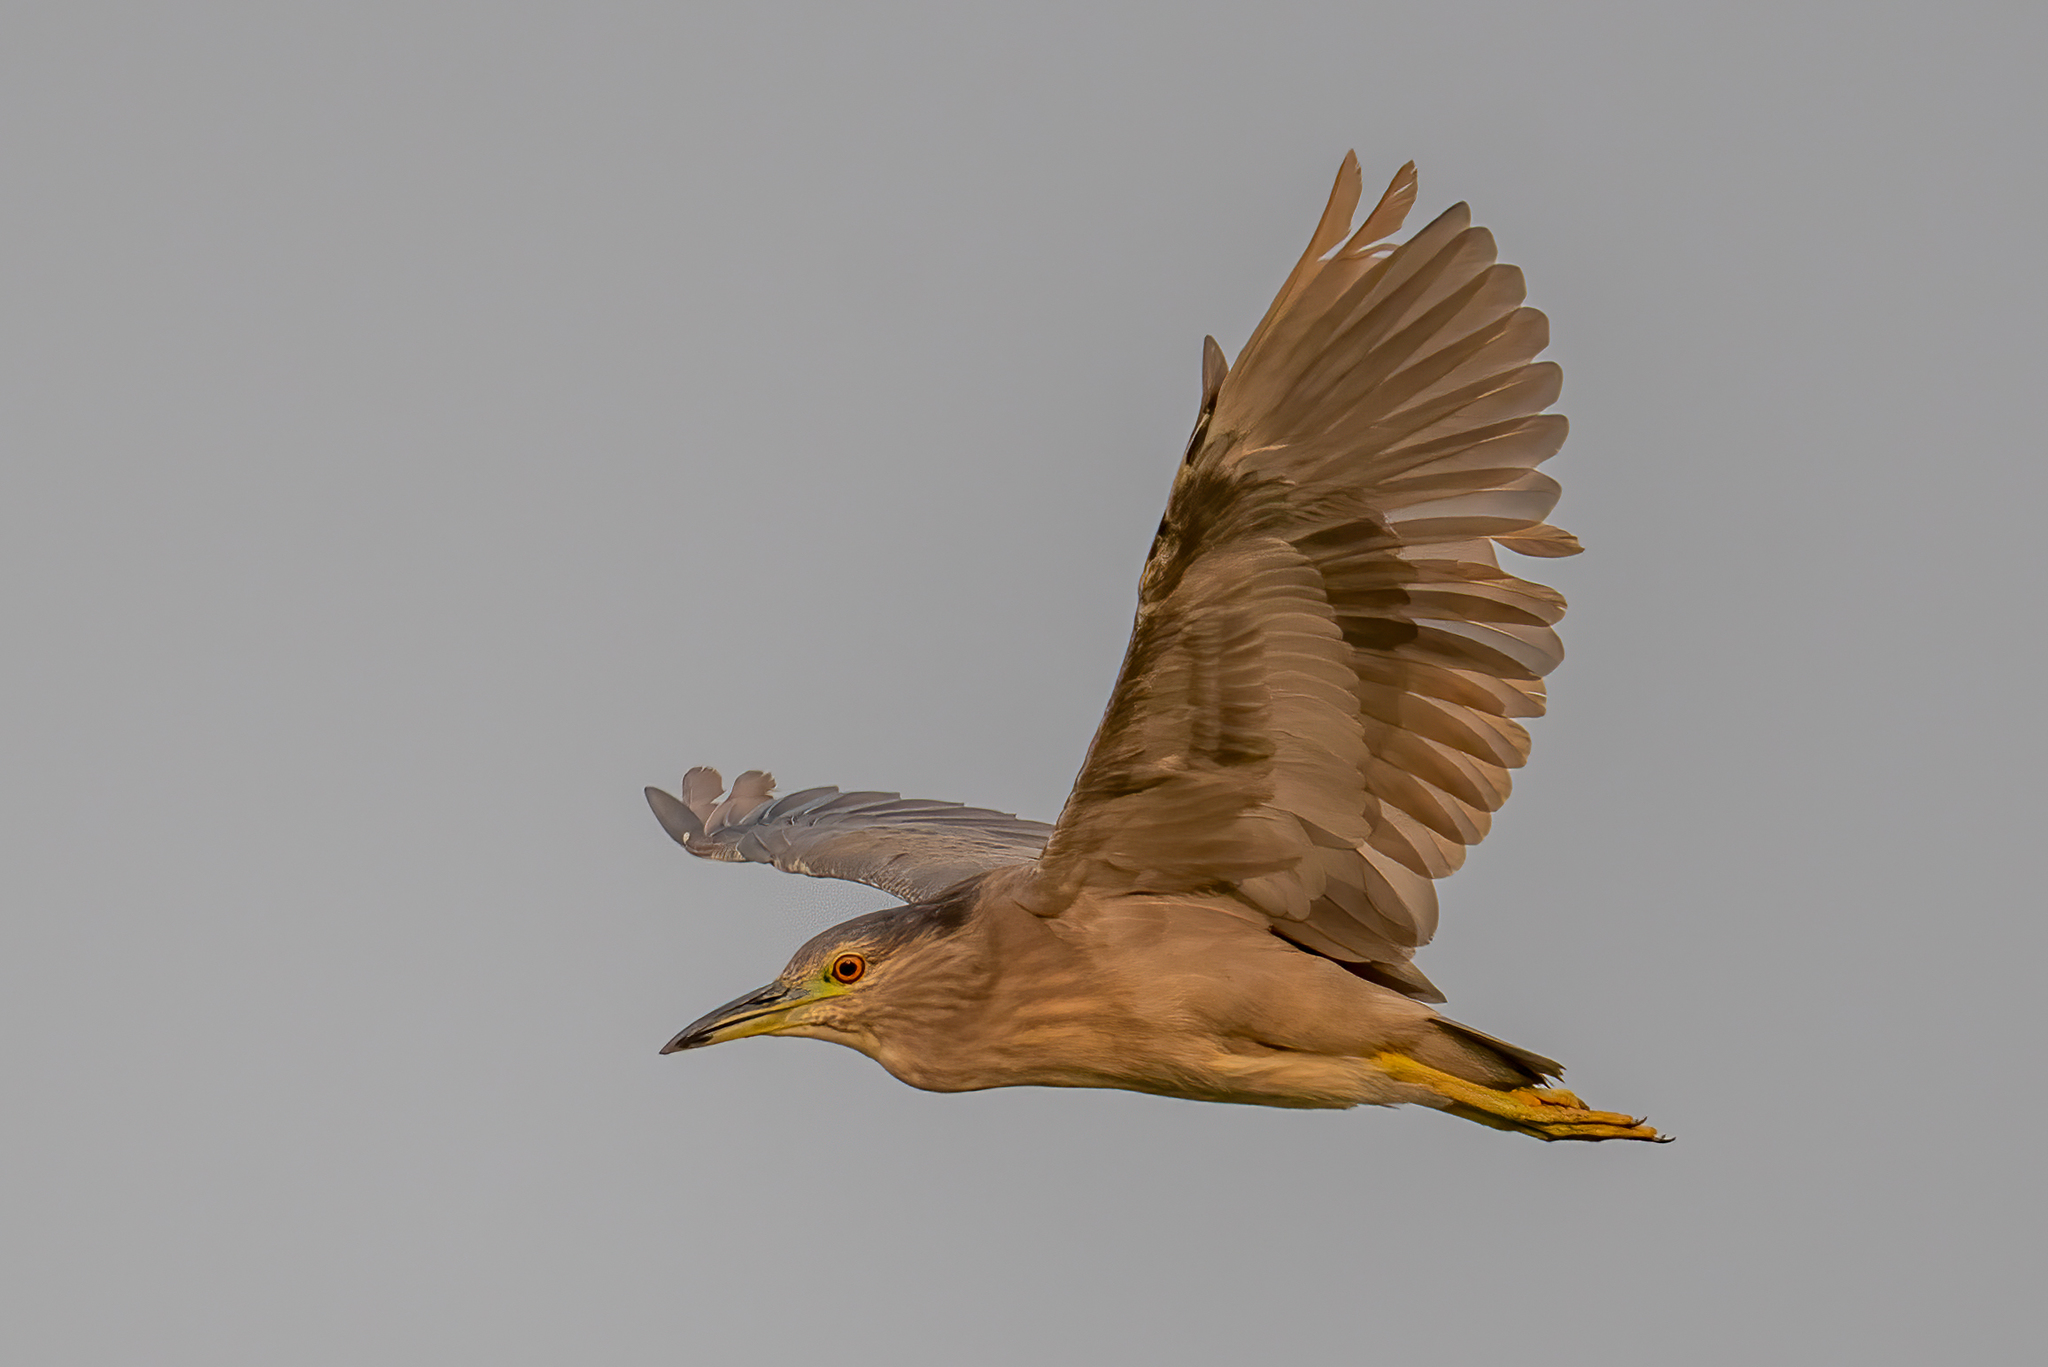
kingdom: Animalia
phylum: Chordata
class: Aves
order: Pelecaniformes
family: Ardeidae
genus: Nycticorax
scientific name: Nycticorax nycticorax
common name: Black-crowned night heron
